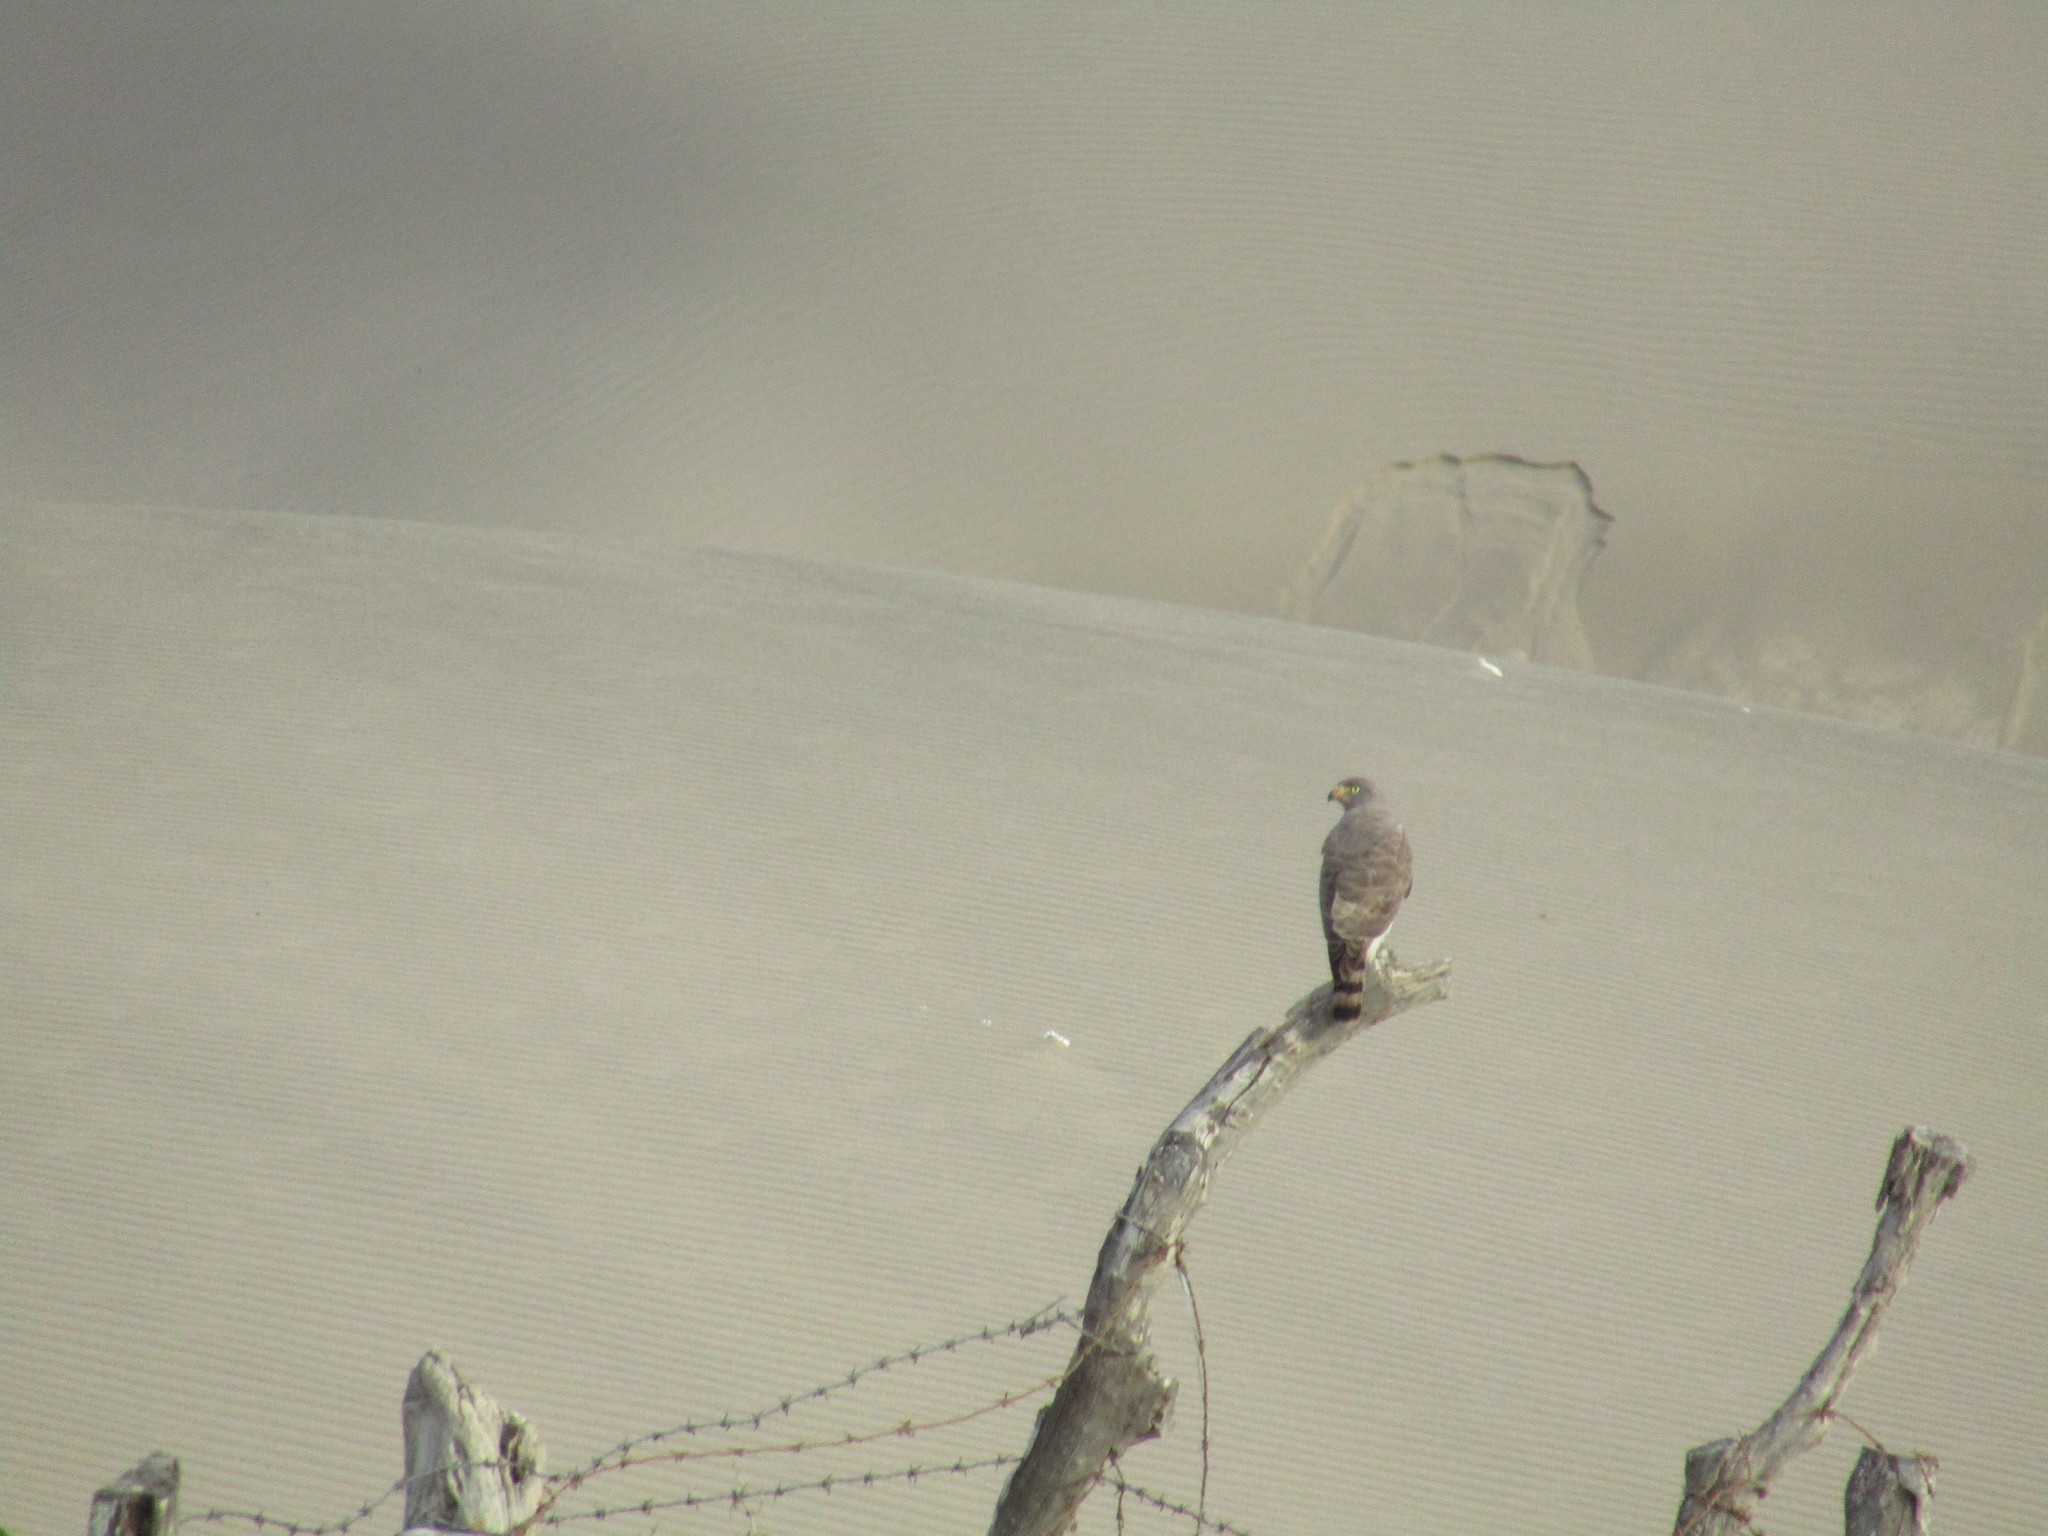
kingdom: Animalia
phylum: Chordata
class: Aves
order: Accipitriformes
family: Accipitridae
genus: Rupornis
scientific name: Rupornis magnirostris
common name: Roadside hawk
